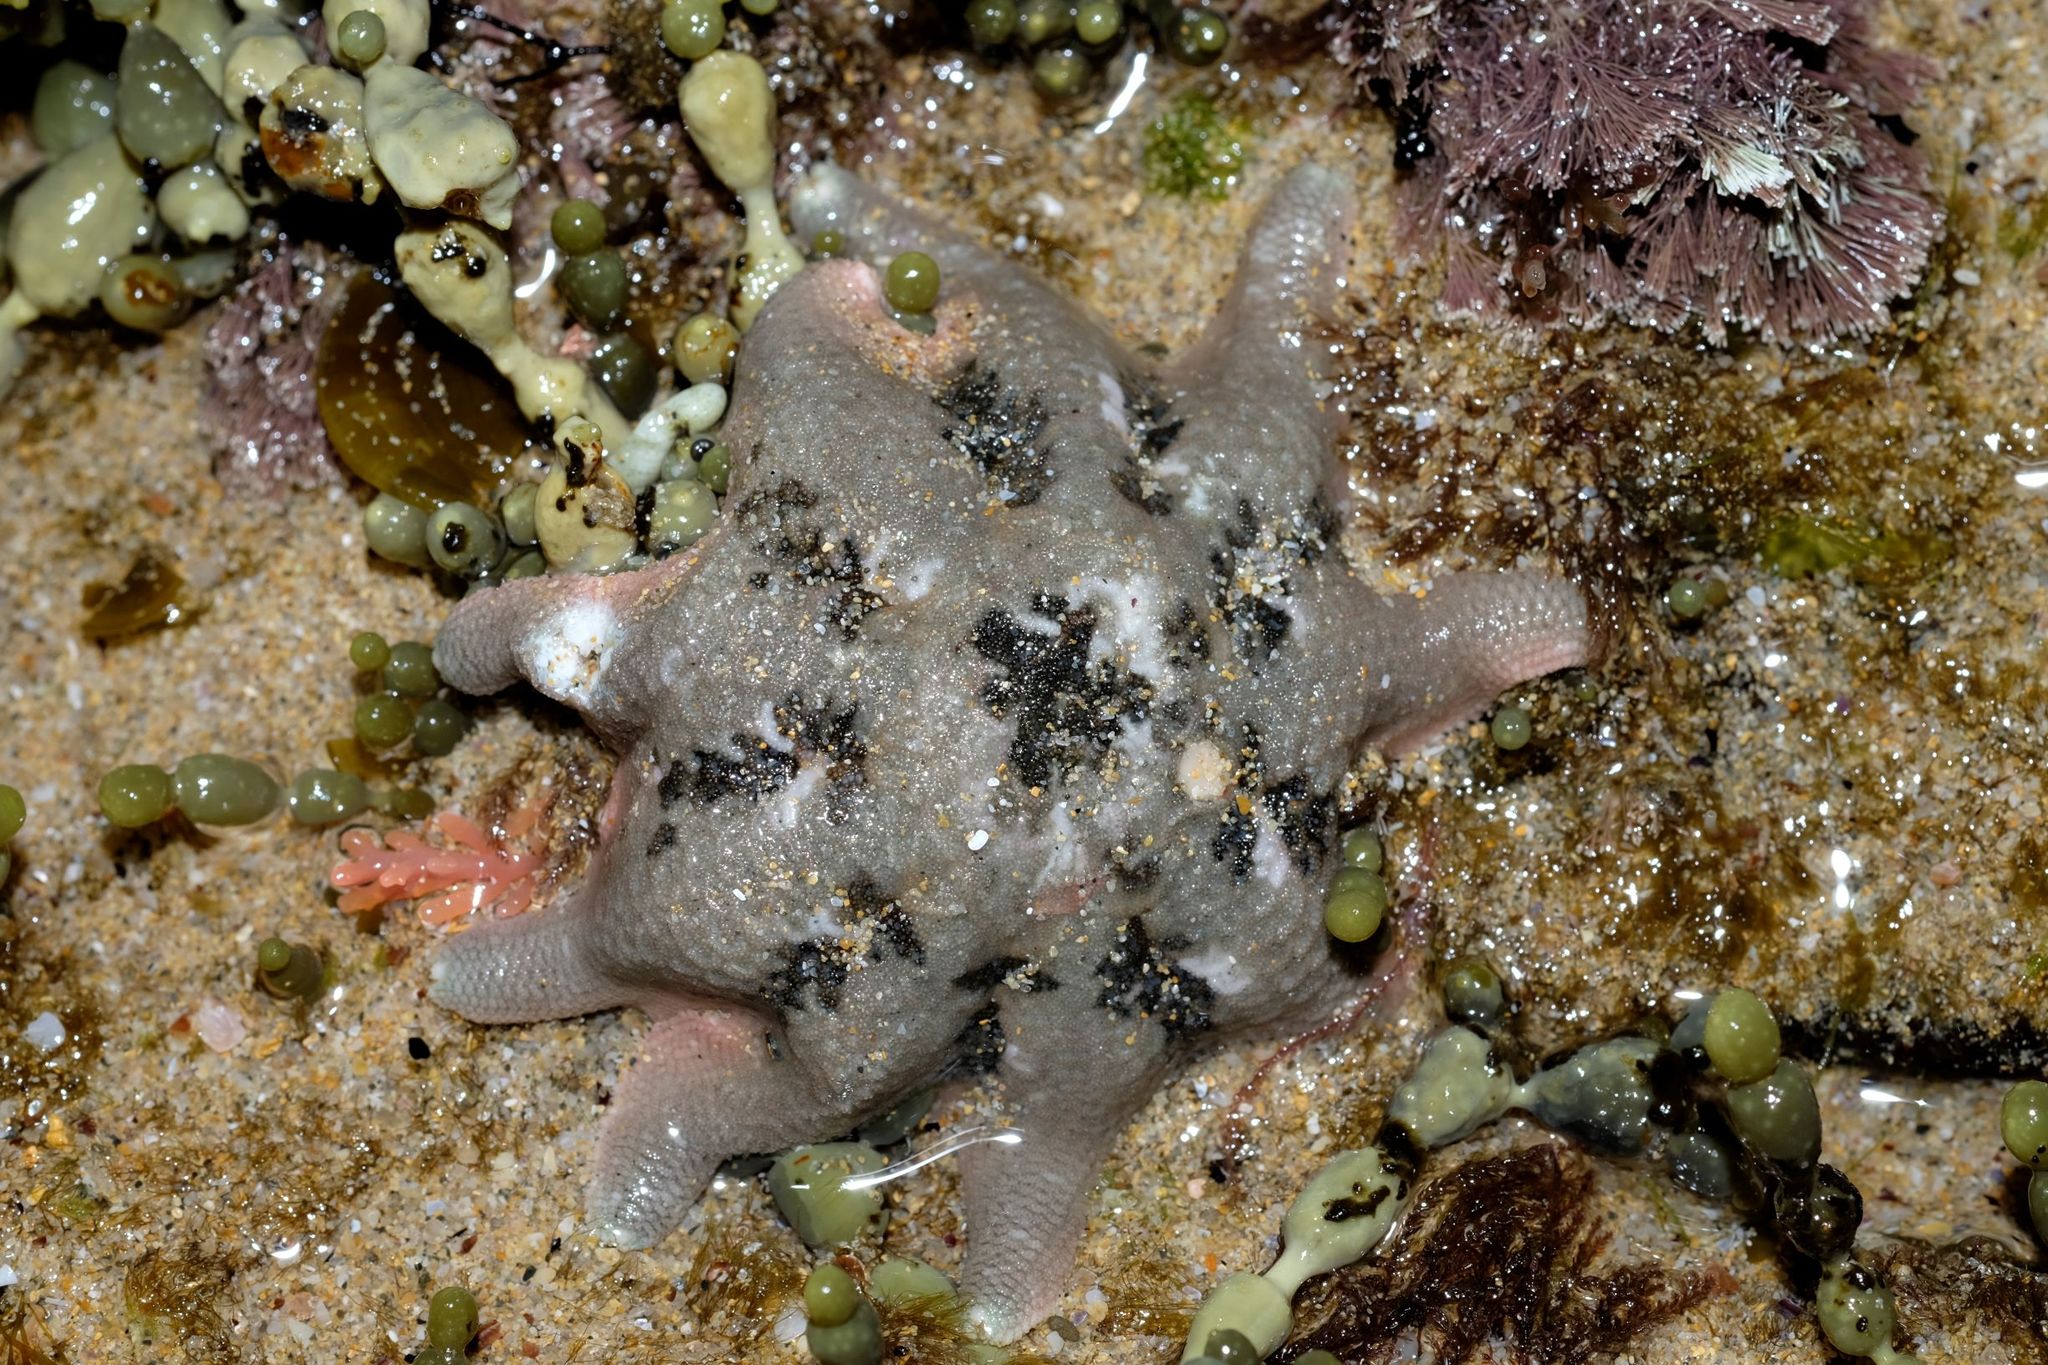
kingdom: Animalia
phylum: Echinodermata
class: Asteroidea
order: Valvatida
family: Asterinidae
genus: Meridiastra
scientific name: Meridiastra calcar
